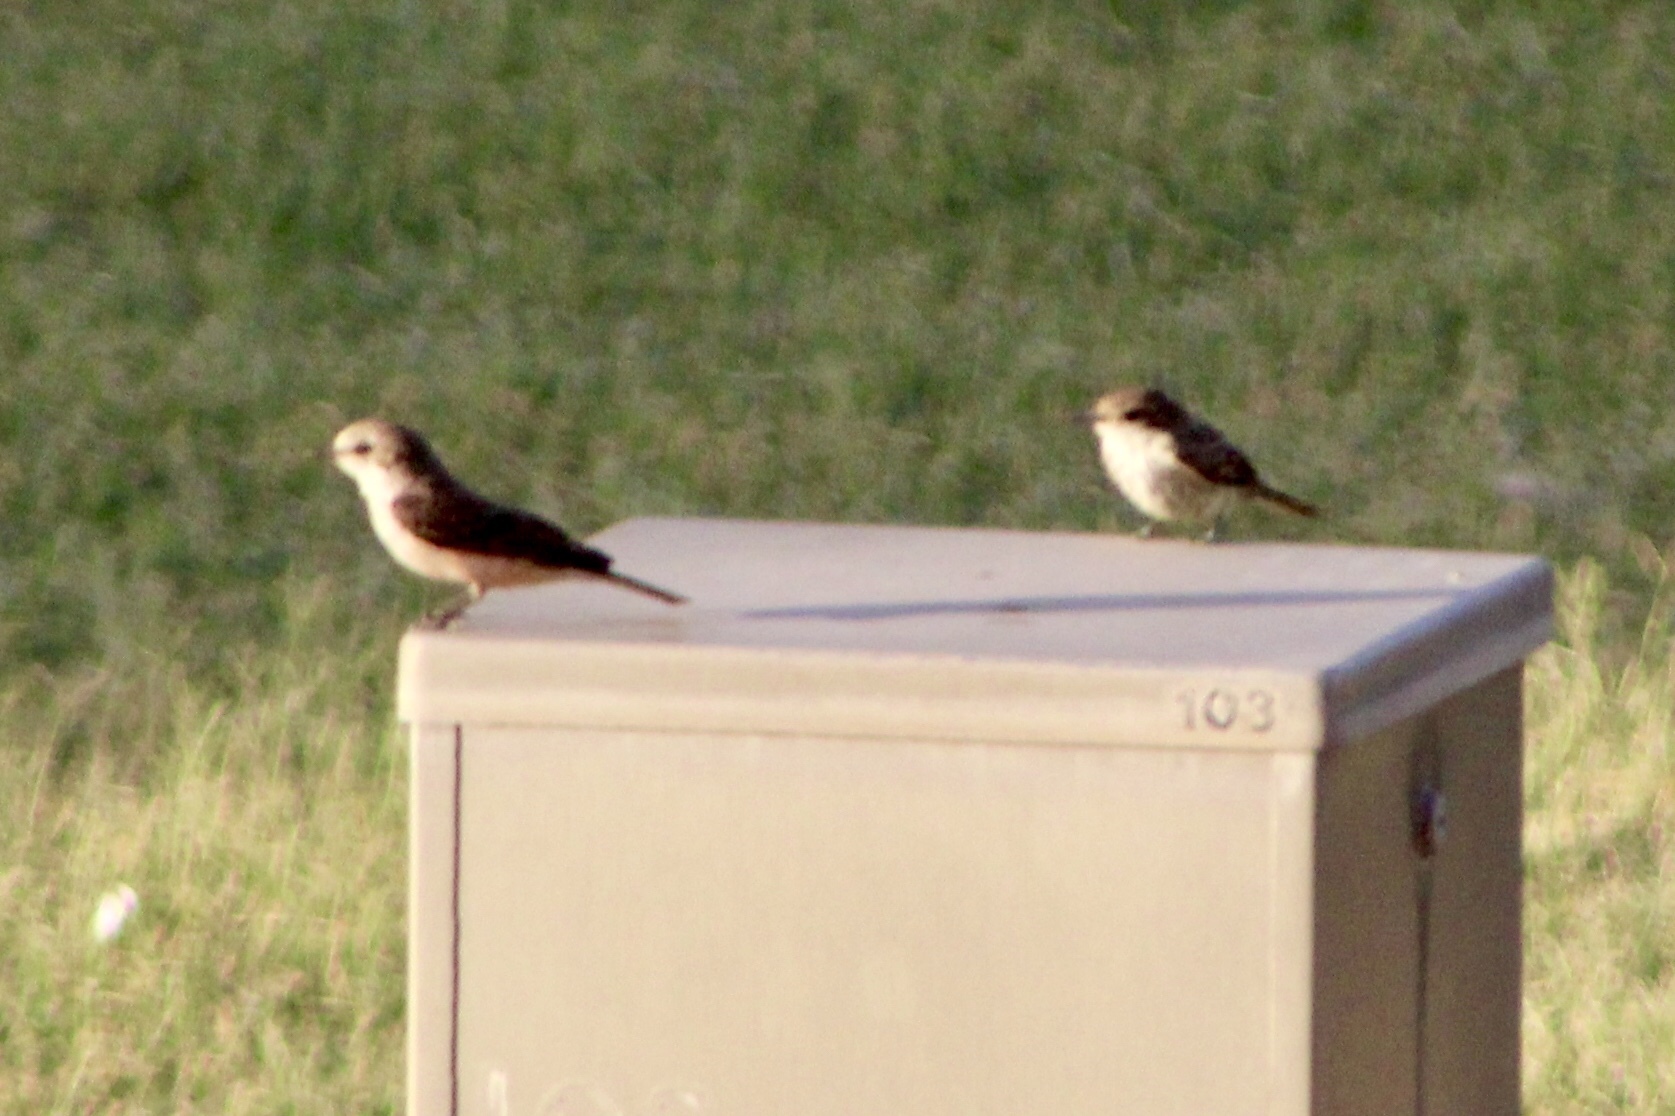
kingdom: Animalia
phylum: Chordata
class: Aves
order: Passeriformes
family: Tyrannidae
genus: Pyrocephalus
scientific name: Pyrocephalus rubinus
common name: Vermilion flycatcher
